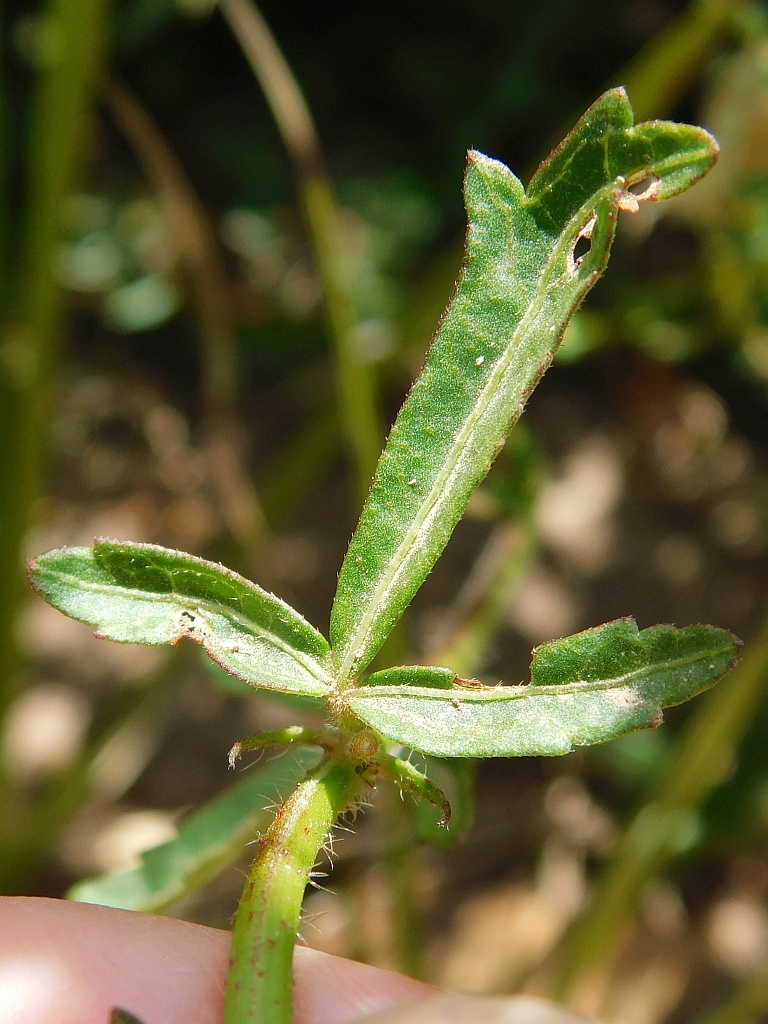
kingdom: Plantae
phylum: Tracheophyta
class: Magnoliopsida
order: Malvales
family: Malvaceae
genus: Hibiscus
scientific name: Hibiscus trionum
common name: Bladder ketmia
